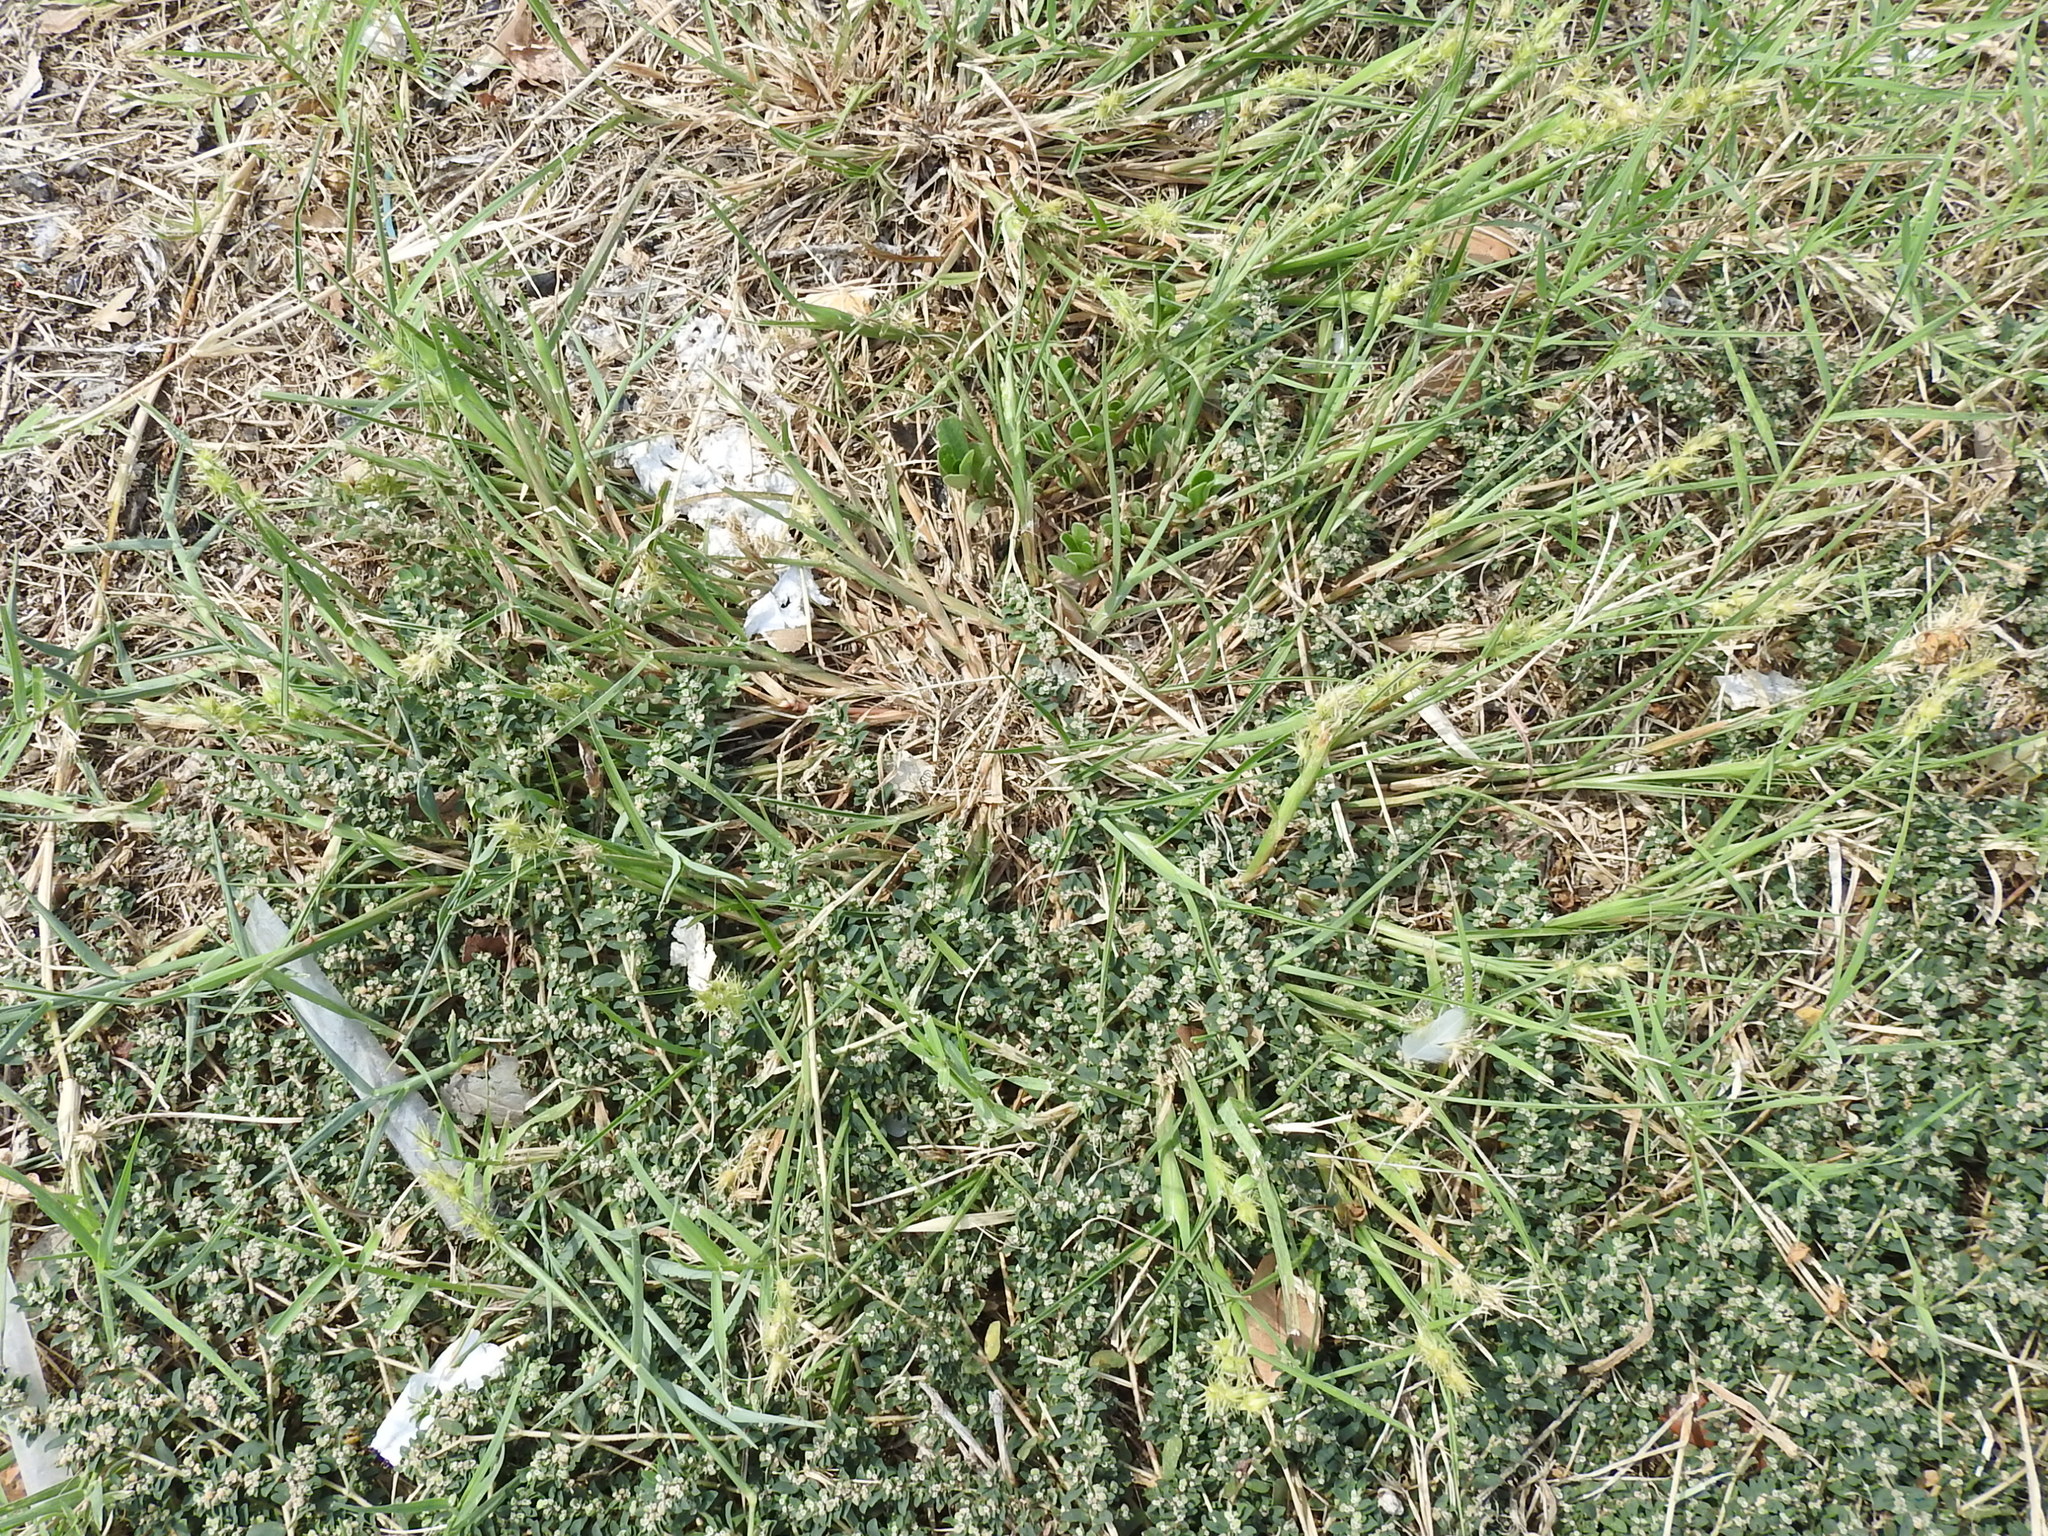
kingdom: Plantae
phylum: Tracheophyta
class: Liliopsida
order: Poales
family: Poaceae
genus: Cenchrus
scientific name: Cenchrus spinifex
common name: Coast sandbur
